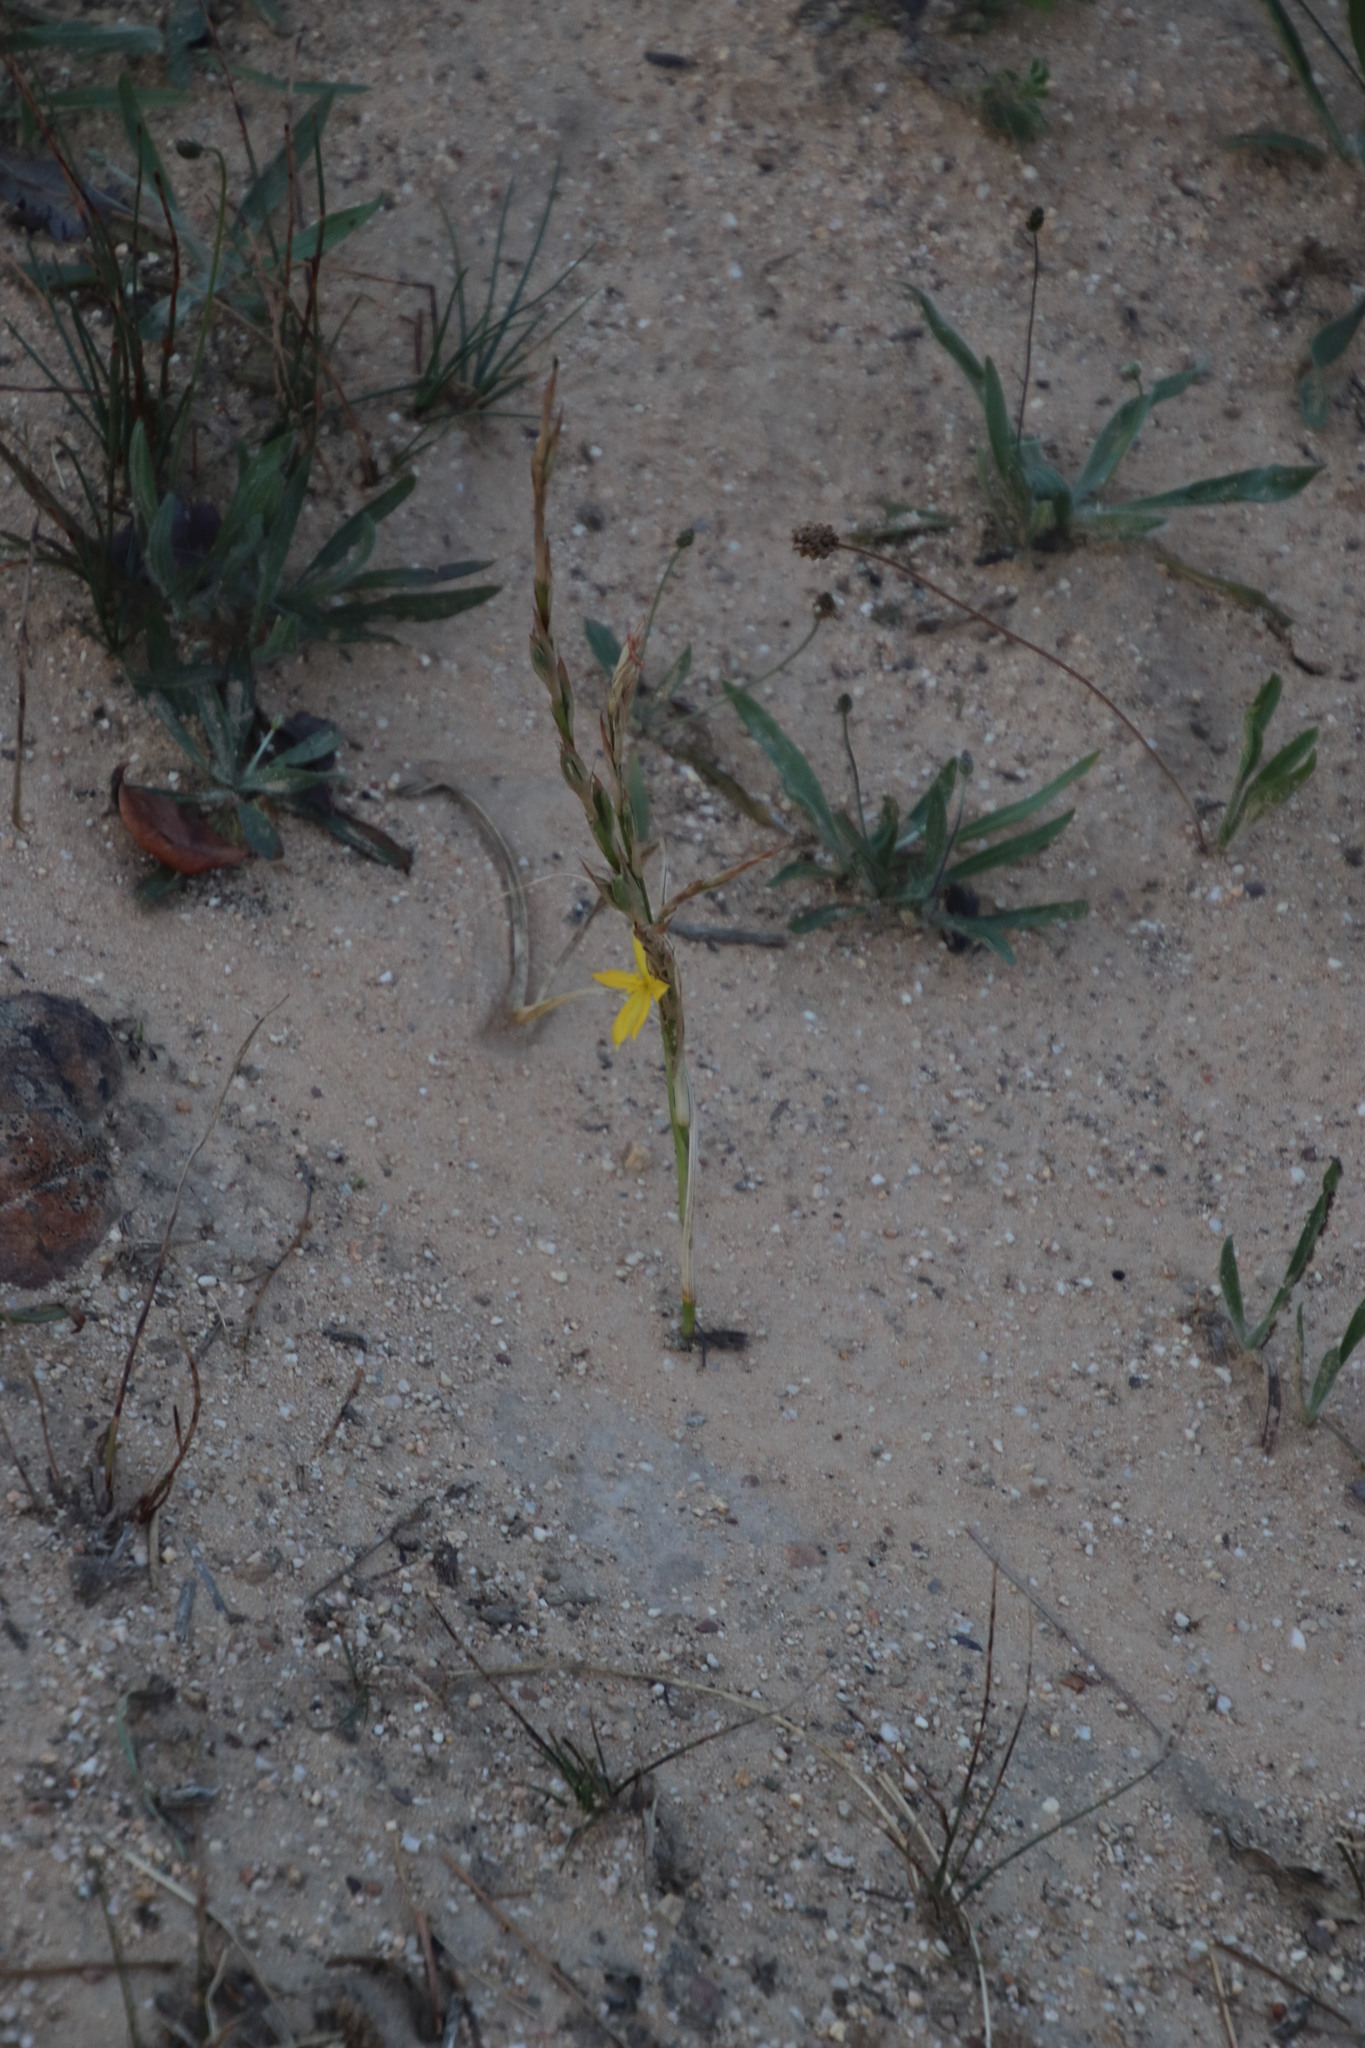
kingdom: Plantae
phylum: Tracheophyta
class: Liliopsida
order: Asparagales
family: Iridaceae
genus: Moraea
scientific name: Moraea lewisiae
